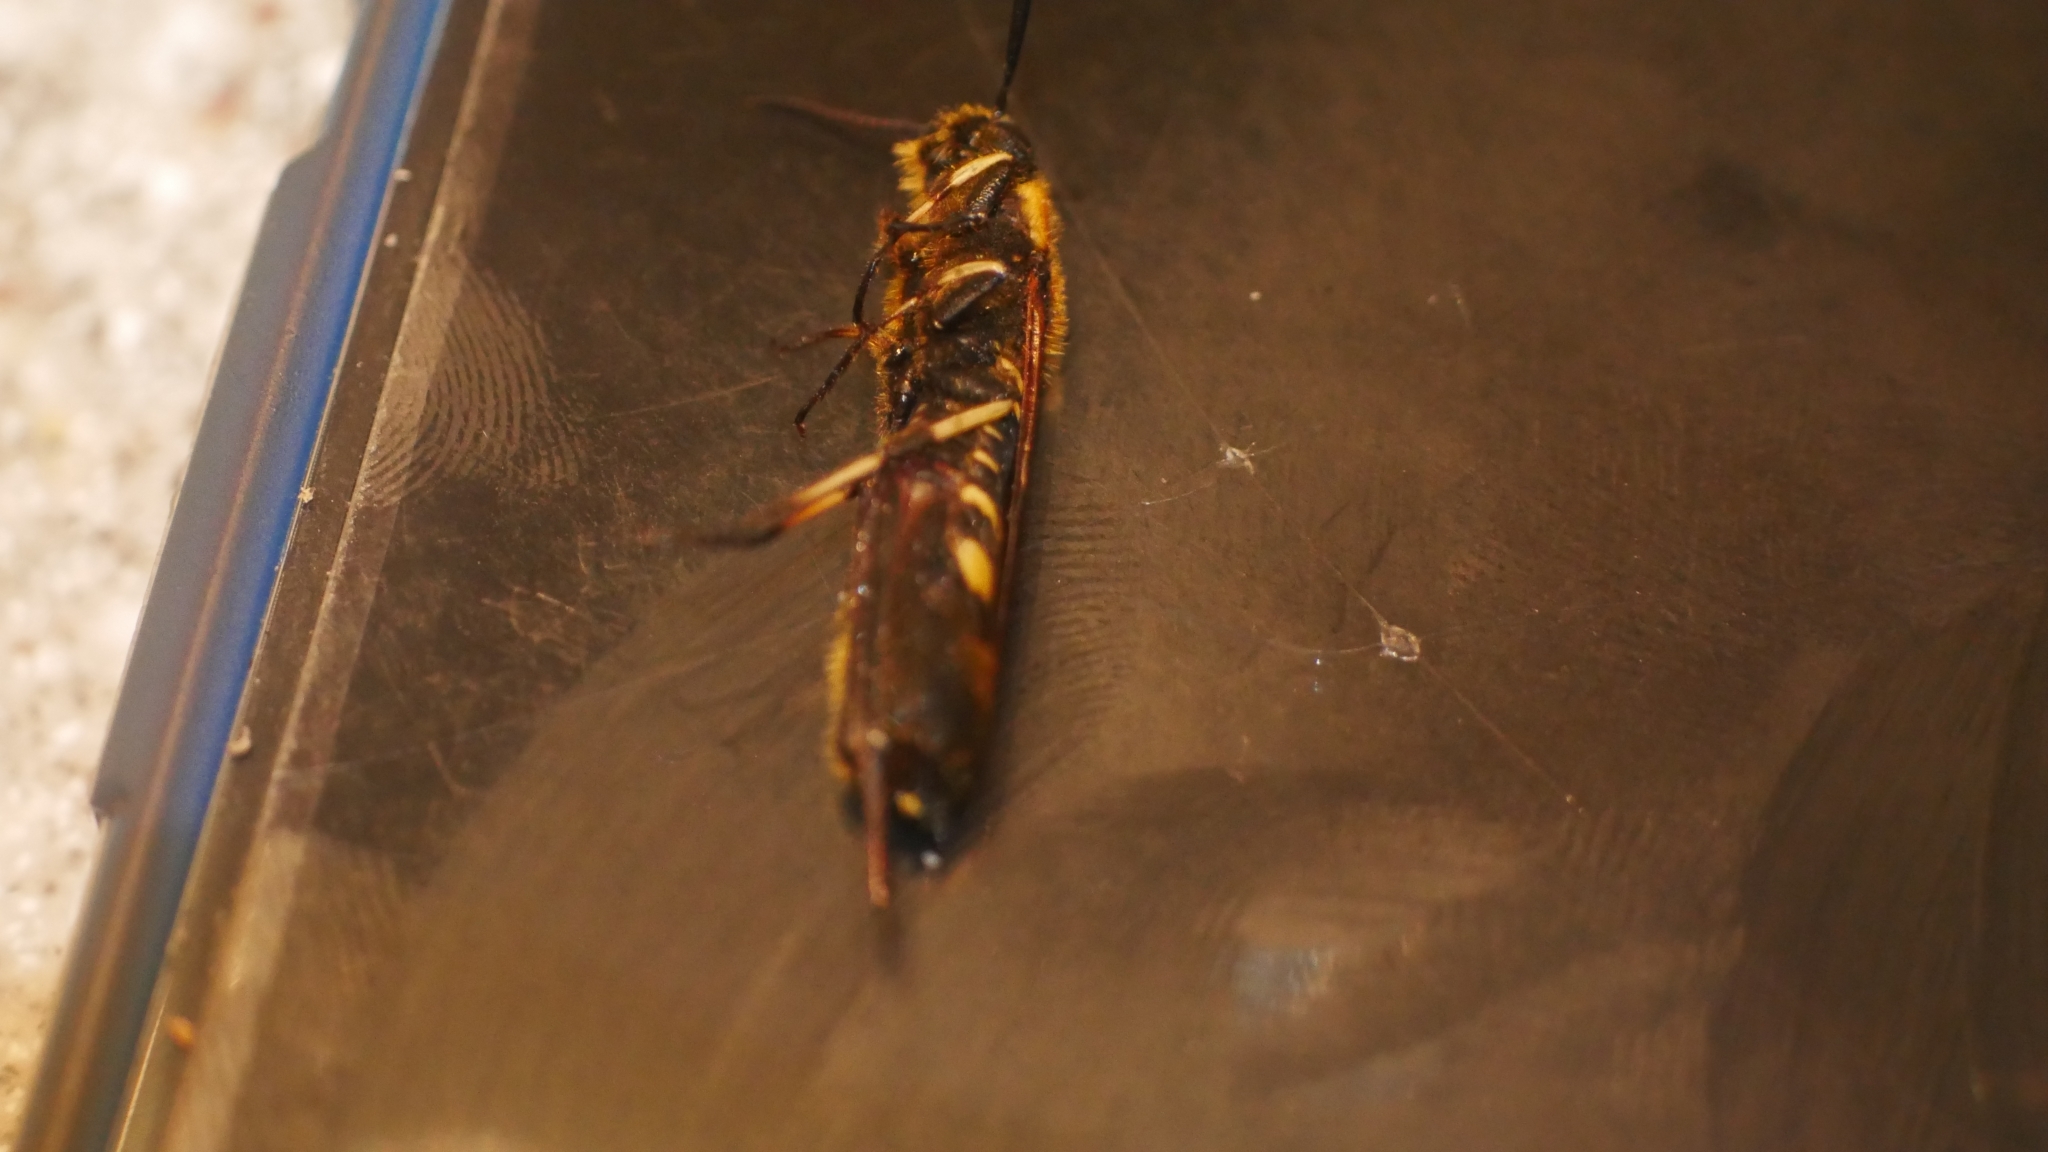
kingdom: Animalia
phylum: Arthropoda
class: Insecta
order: Hymenoptera
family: Siricidae
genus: Eriotremex
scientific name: Eriotremex formosanus
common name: Asian horntail
